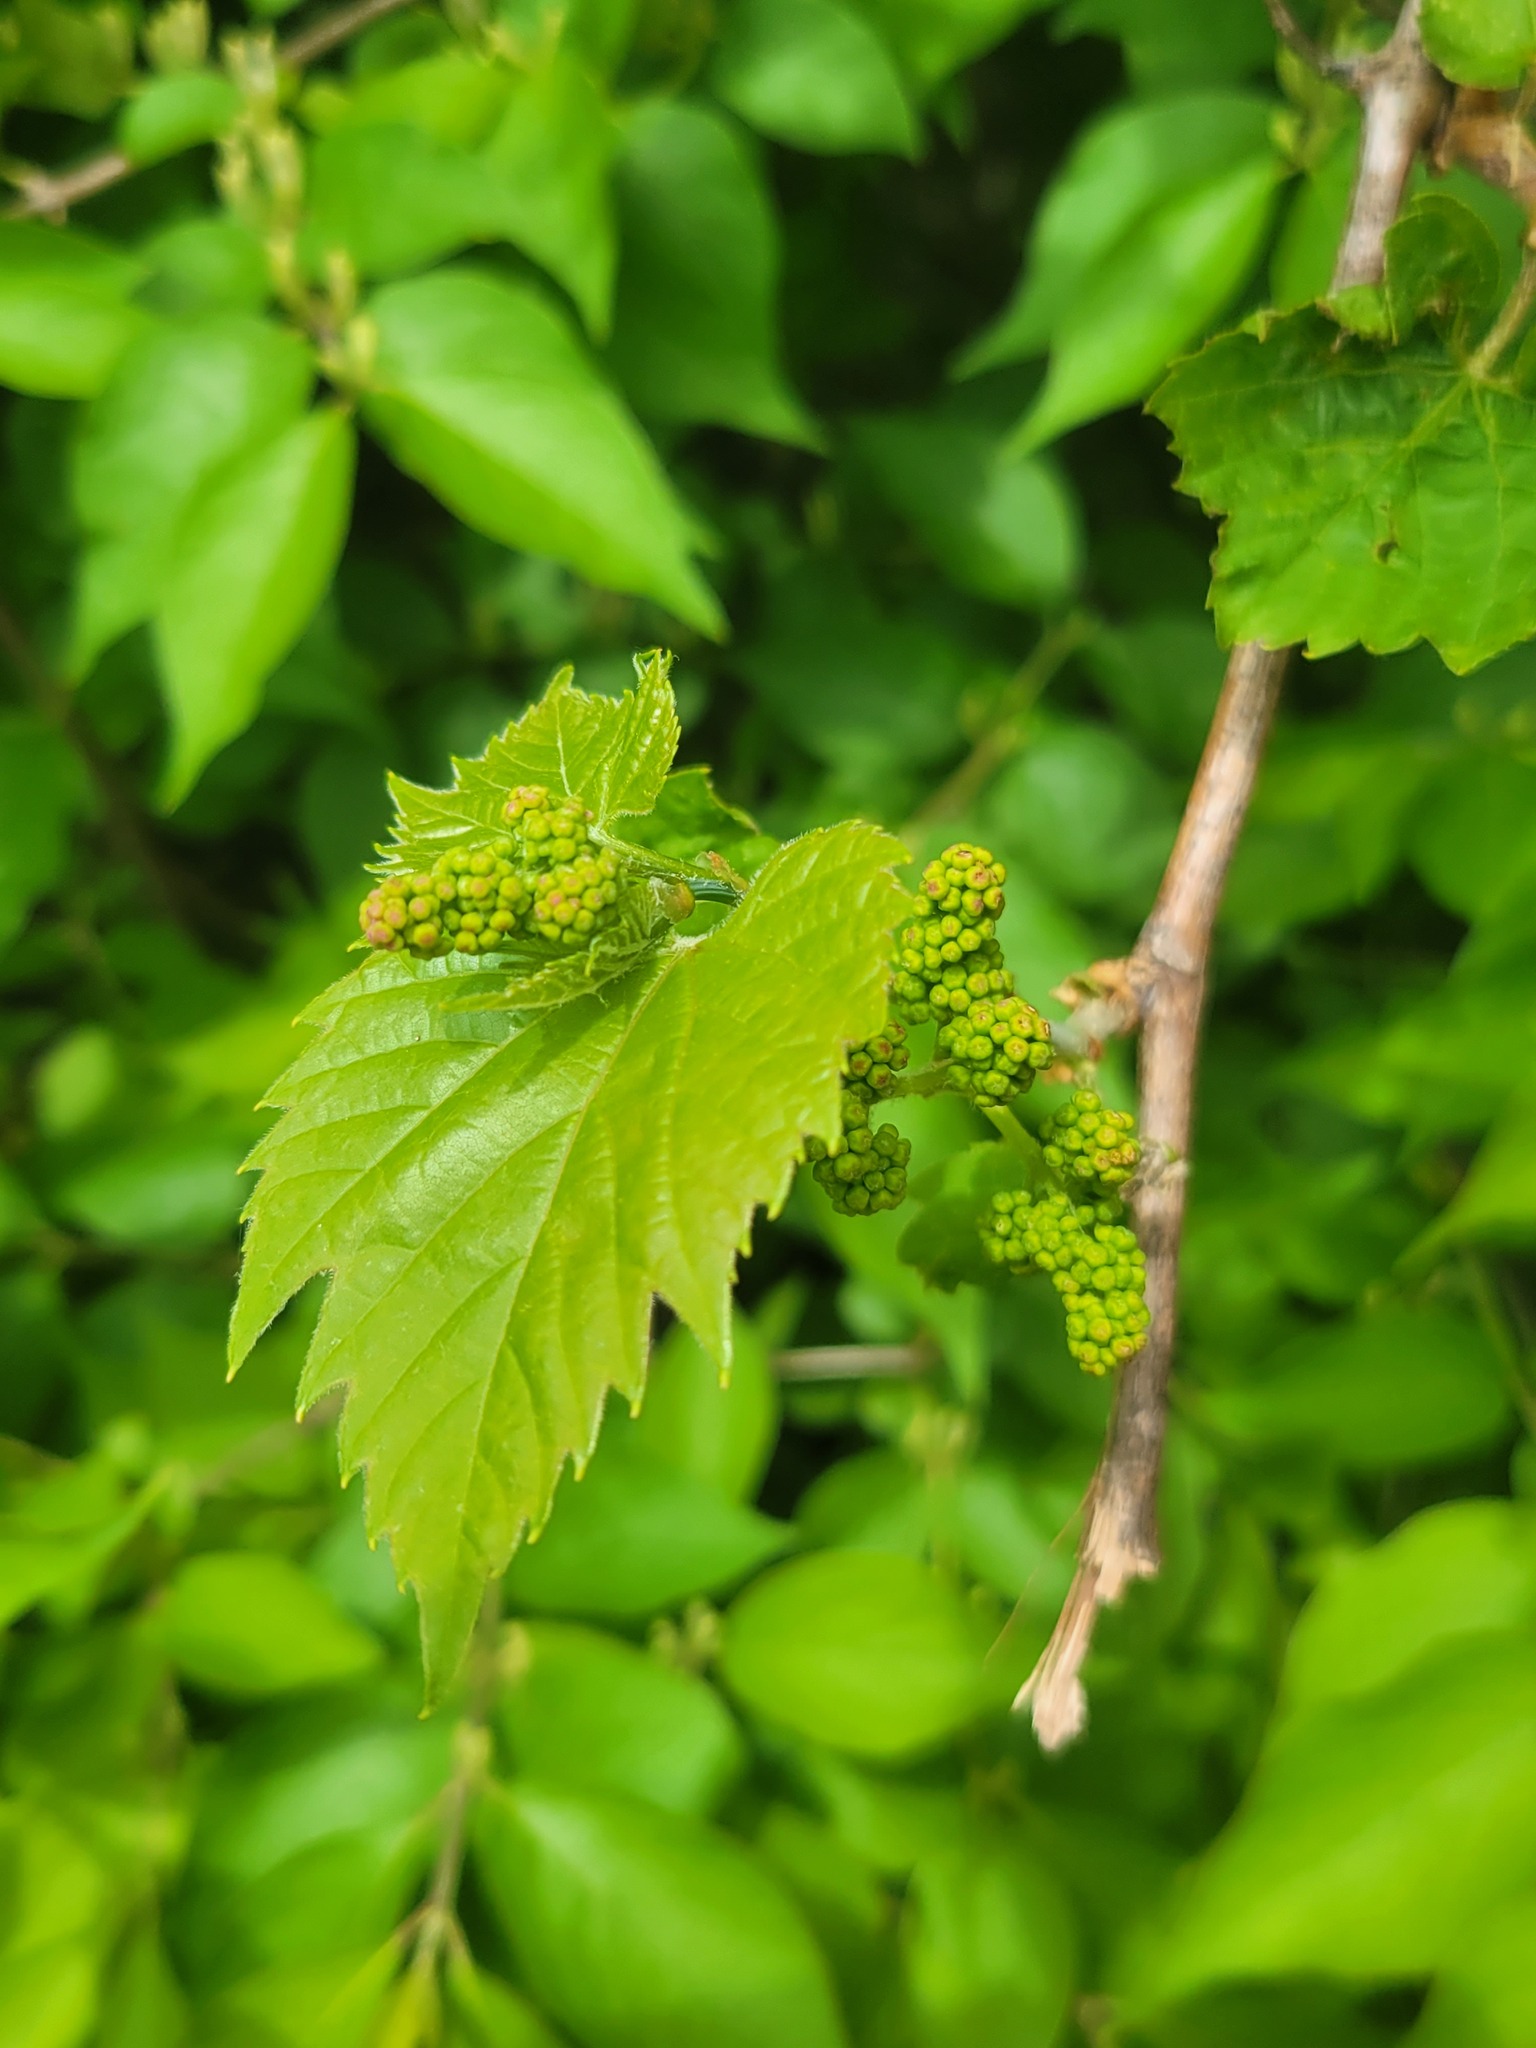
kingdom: Plantae
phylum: Tracheophyta
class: Magnoliopsida
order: Vitales
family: Vitaceae
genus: Vitis
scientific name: Vitis riparia
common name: Frost grape
